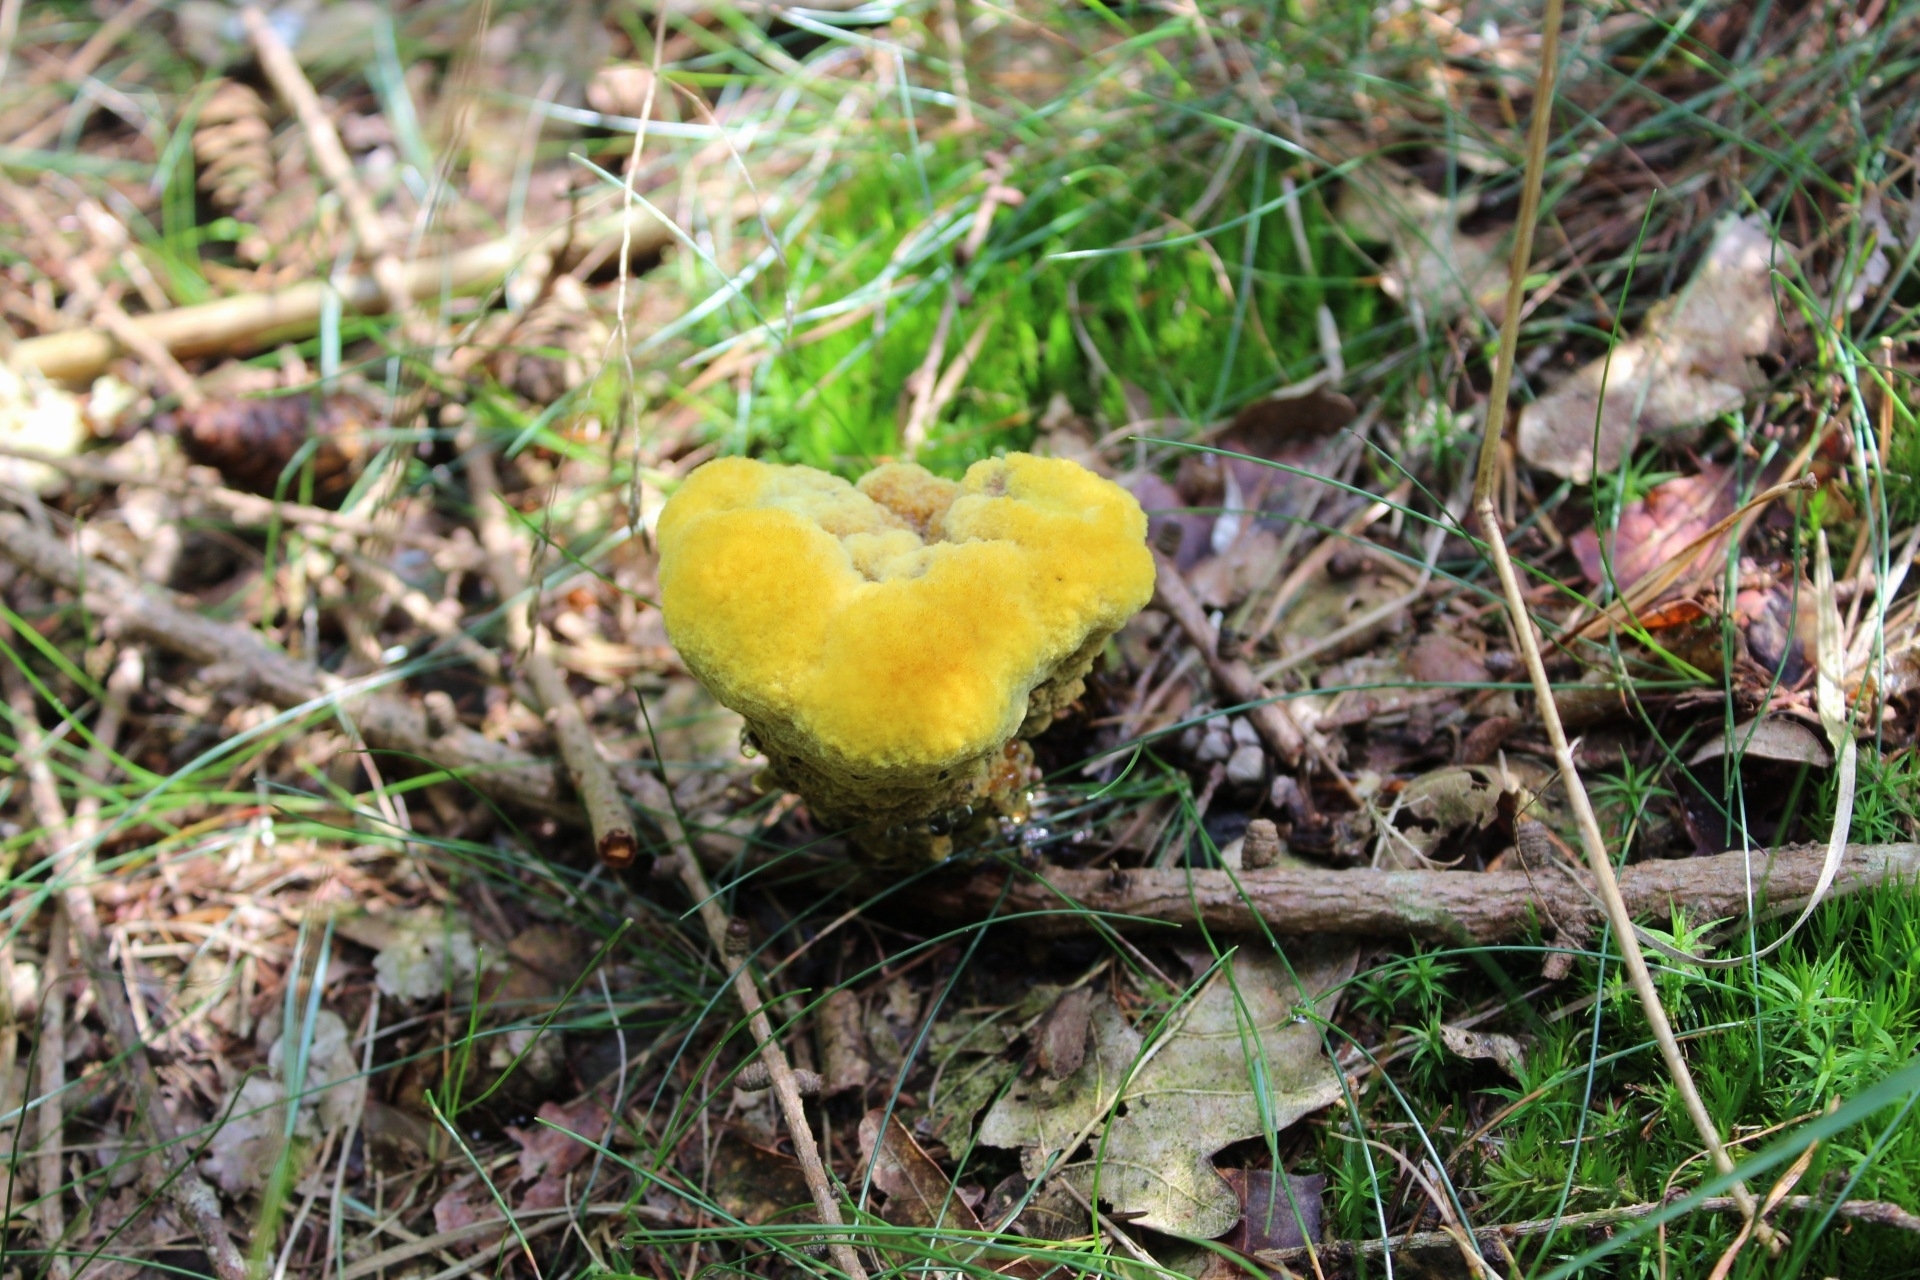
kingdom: Fungi
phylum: Basidiomycota
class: Agaricomycetes
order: Polyporales
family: Laetiporaceae
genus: Phaeolus
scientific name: Phaeolus schweinitzii
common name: Dyer's mazegill
